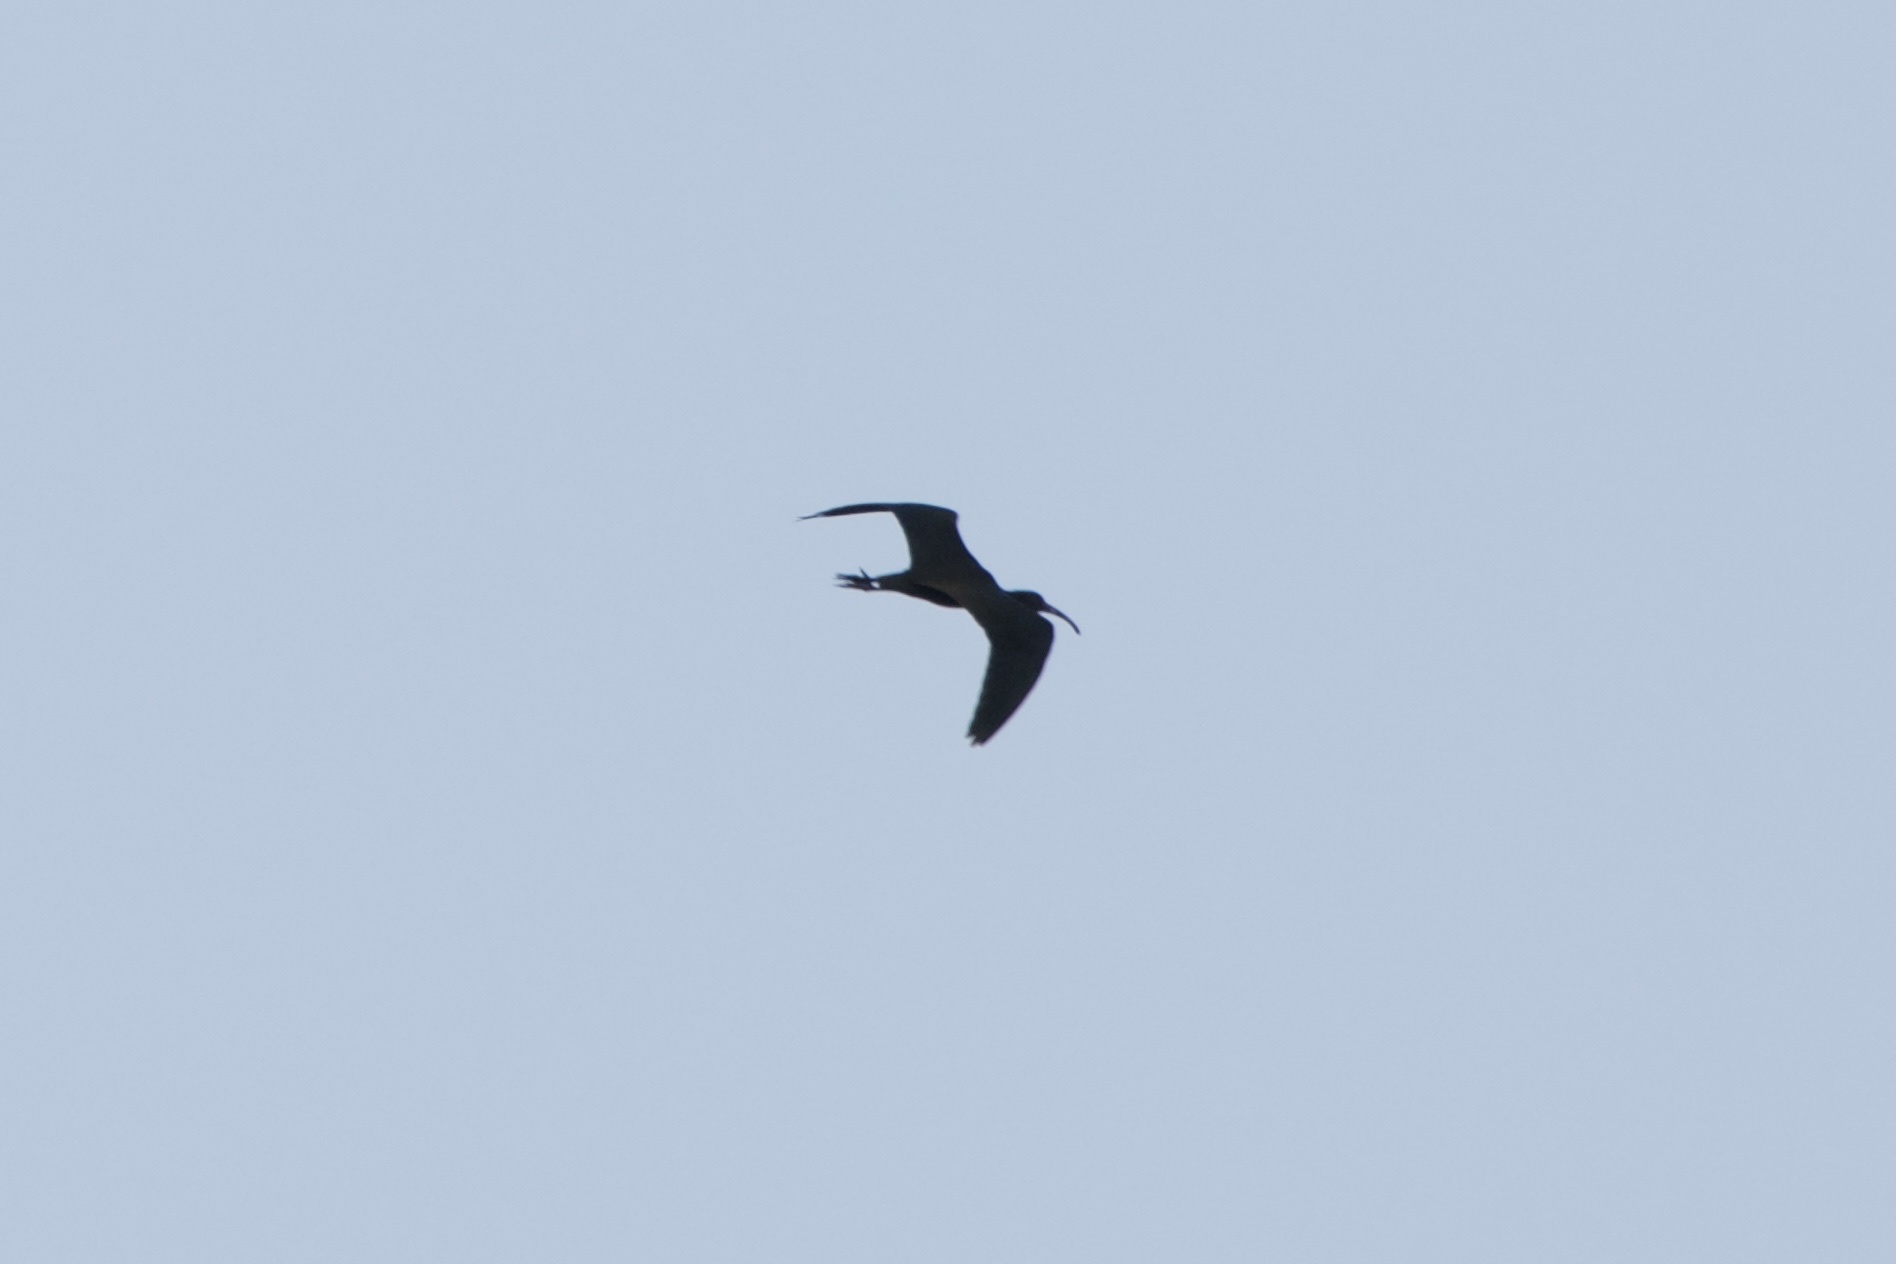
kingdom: Animalia
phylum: Chordata
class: Aves
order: Pelecaniformes
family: Threskiornithidae
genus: Plegadis
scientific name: Plegadis chihi
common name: White-faced ibis
